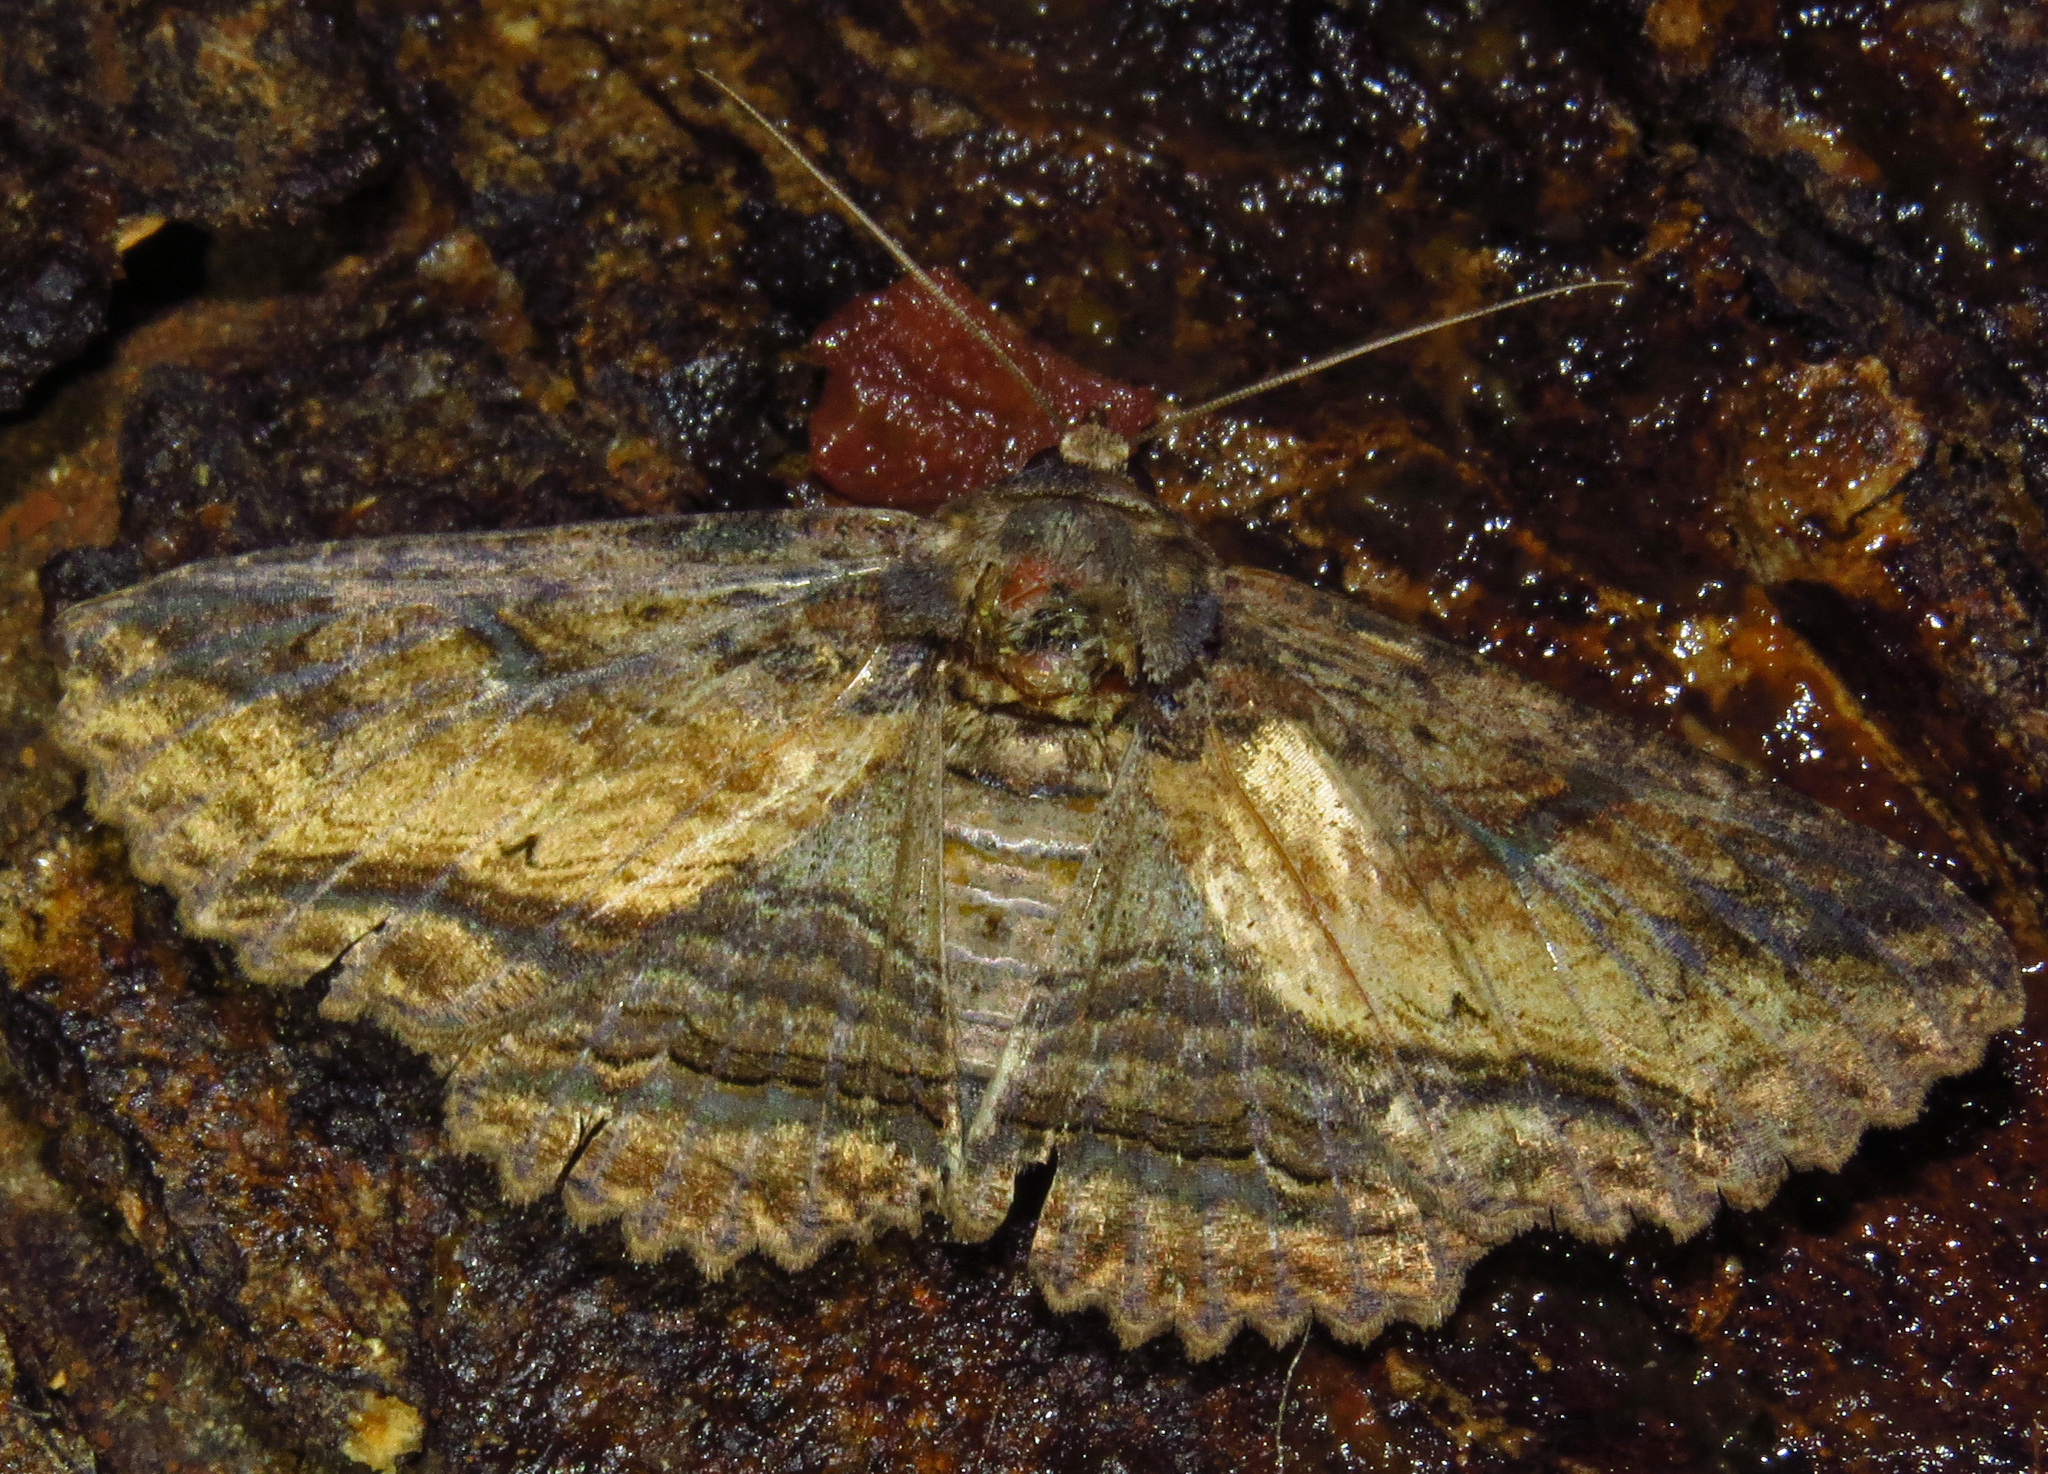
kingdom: Animalia
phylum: Arthropoda
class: Insecta
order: Lepidoptera
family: Erebidae
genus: Zale
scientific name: Zale lunata
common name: Lunate zale moth
